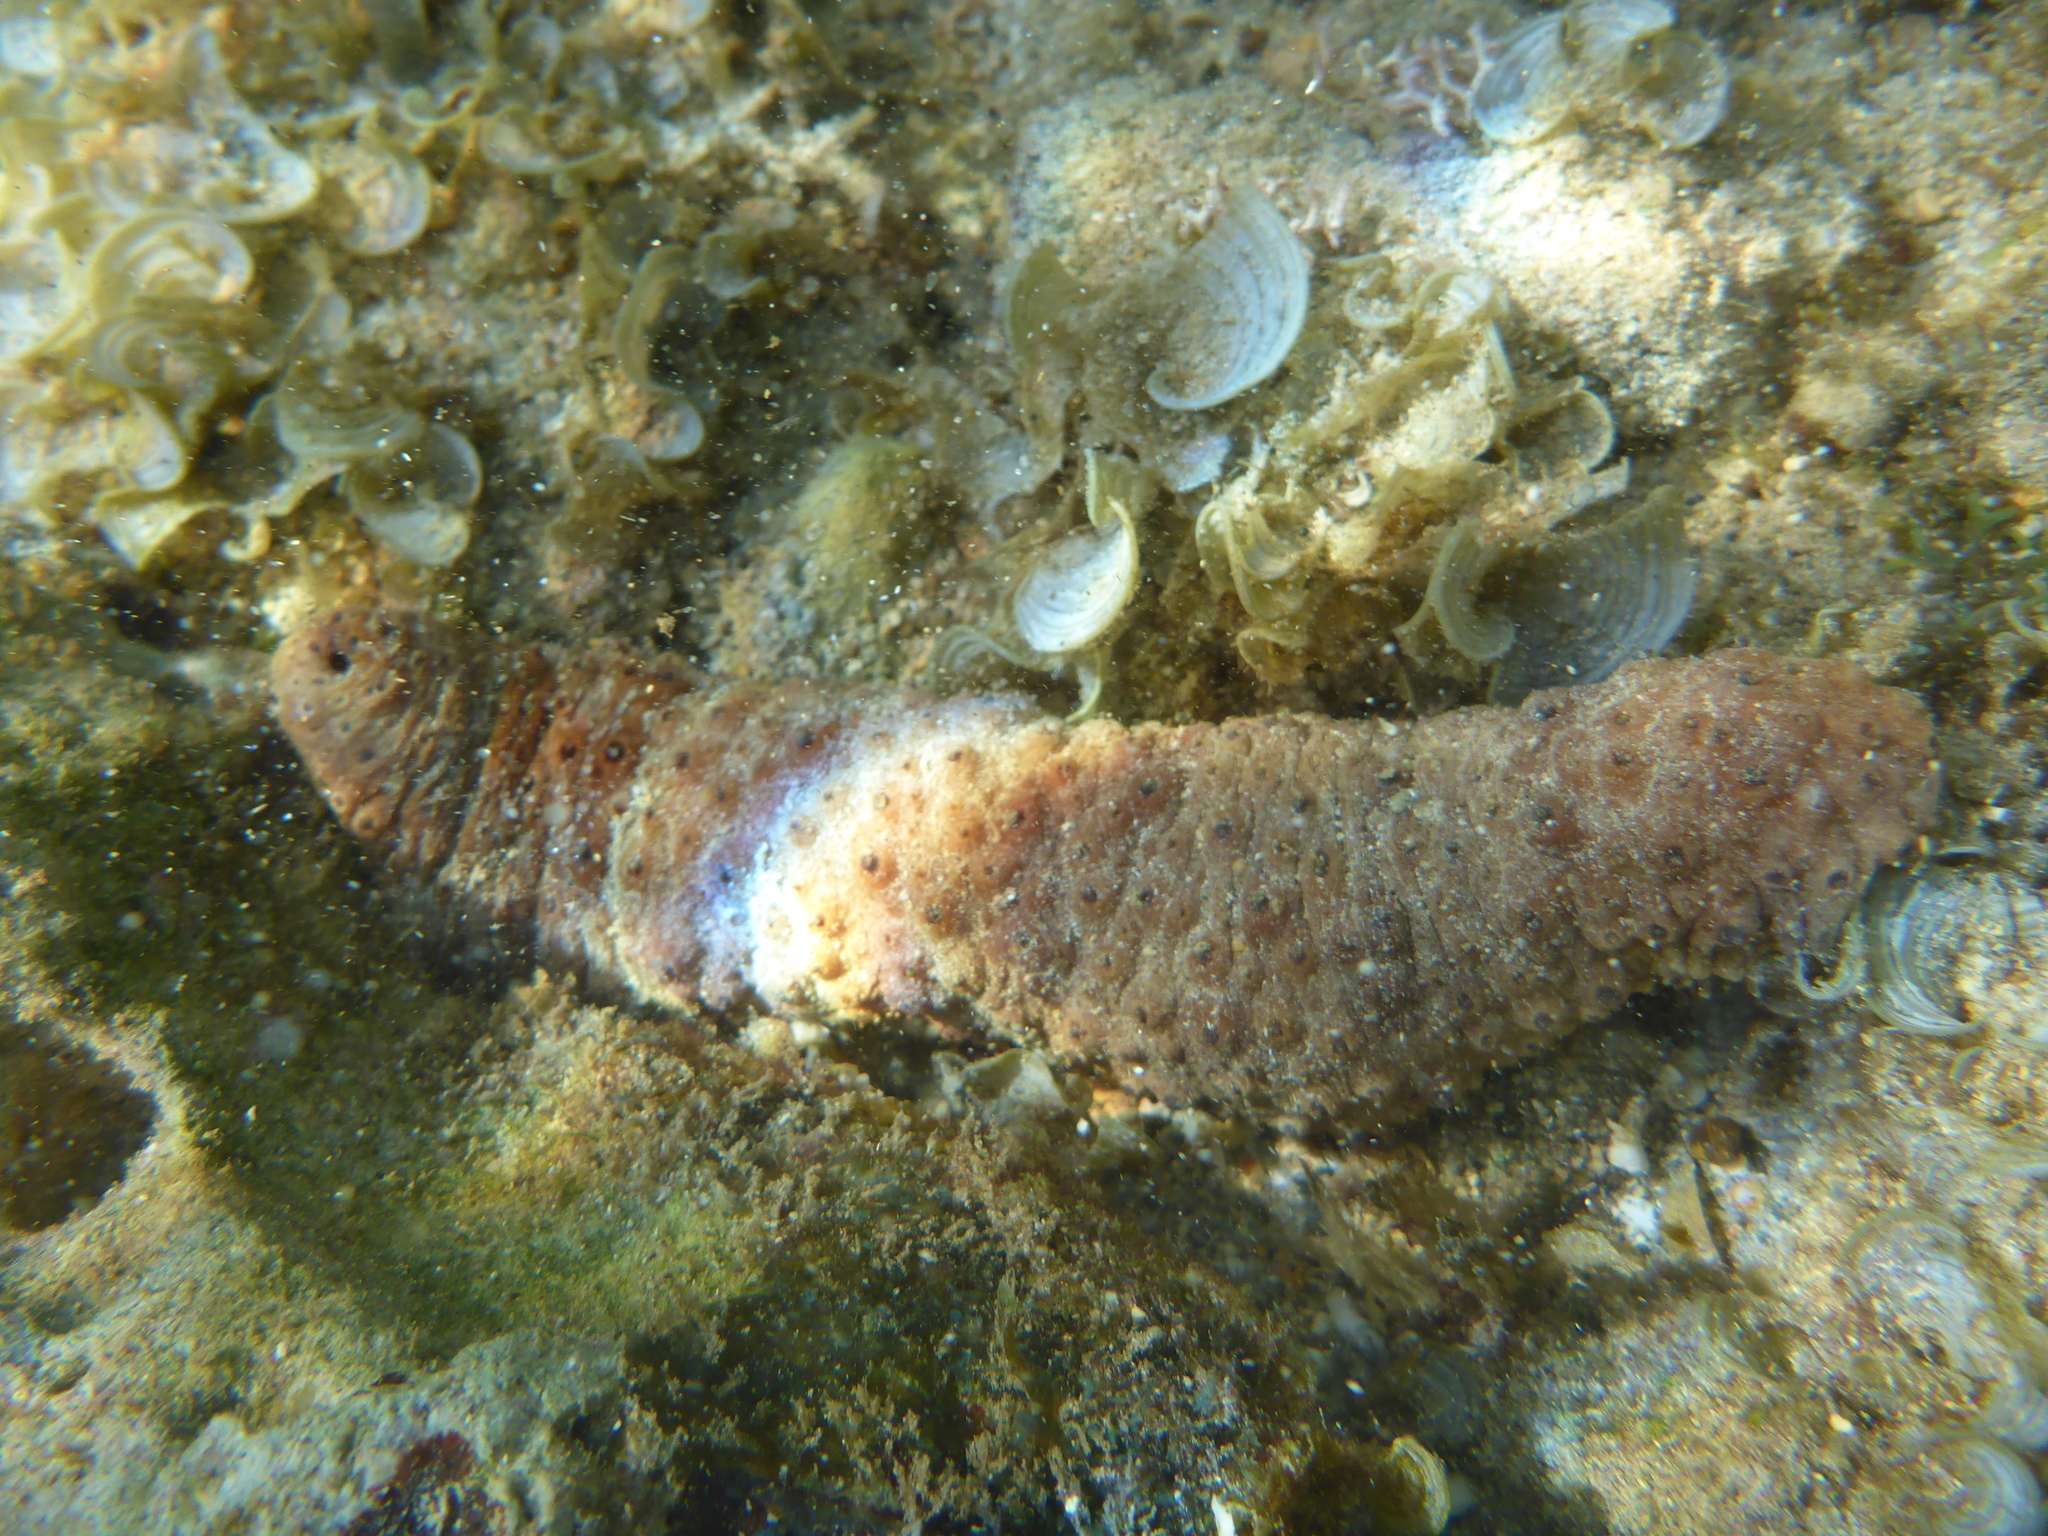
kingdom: Animalia
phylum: Echinodermata
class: Holothuroidea
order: Holothuriida
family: Holothuriidae
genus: Holothuria
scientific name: Holothuria fuscocinerea
